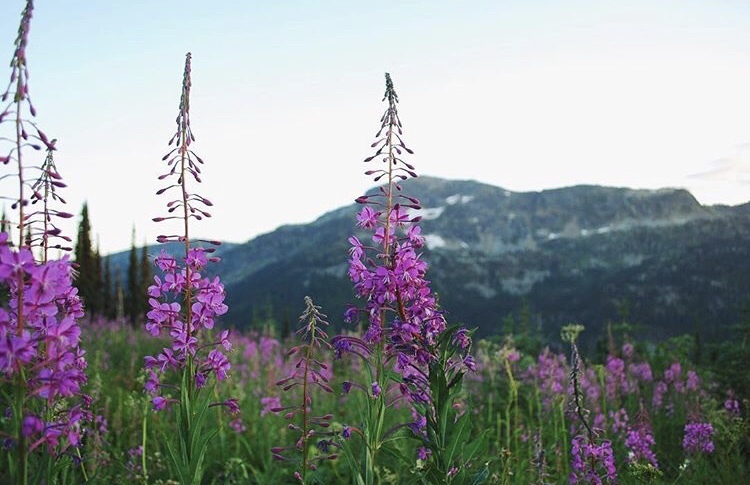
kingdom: Plantae
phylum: Tracheophyta
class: Magnoliopsida
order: Myrtales
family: Onagraceae
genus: Chamaenerion
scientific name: Chamaenerion angustifolium
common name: Fireweed
